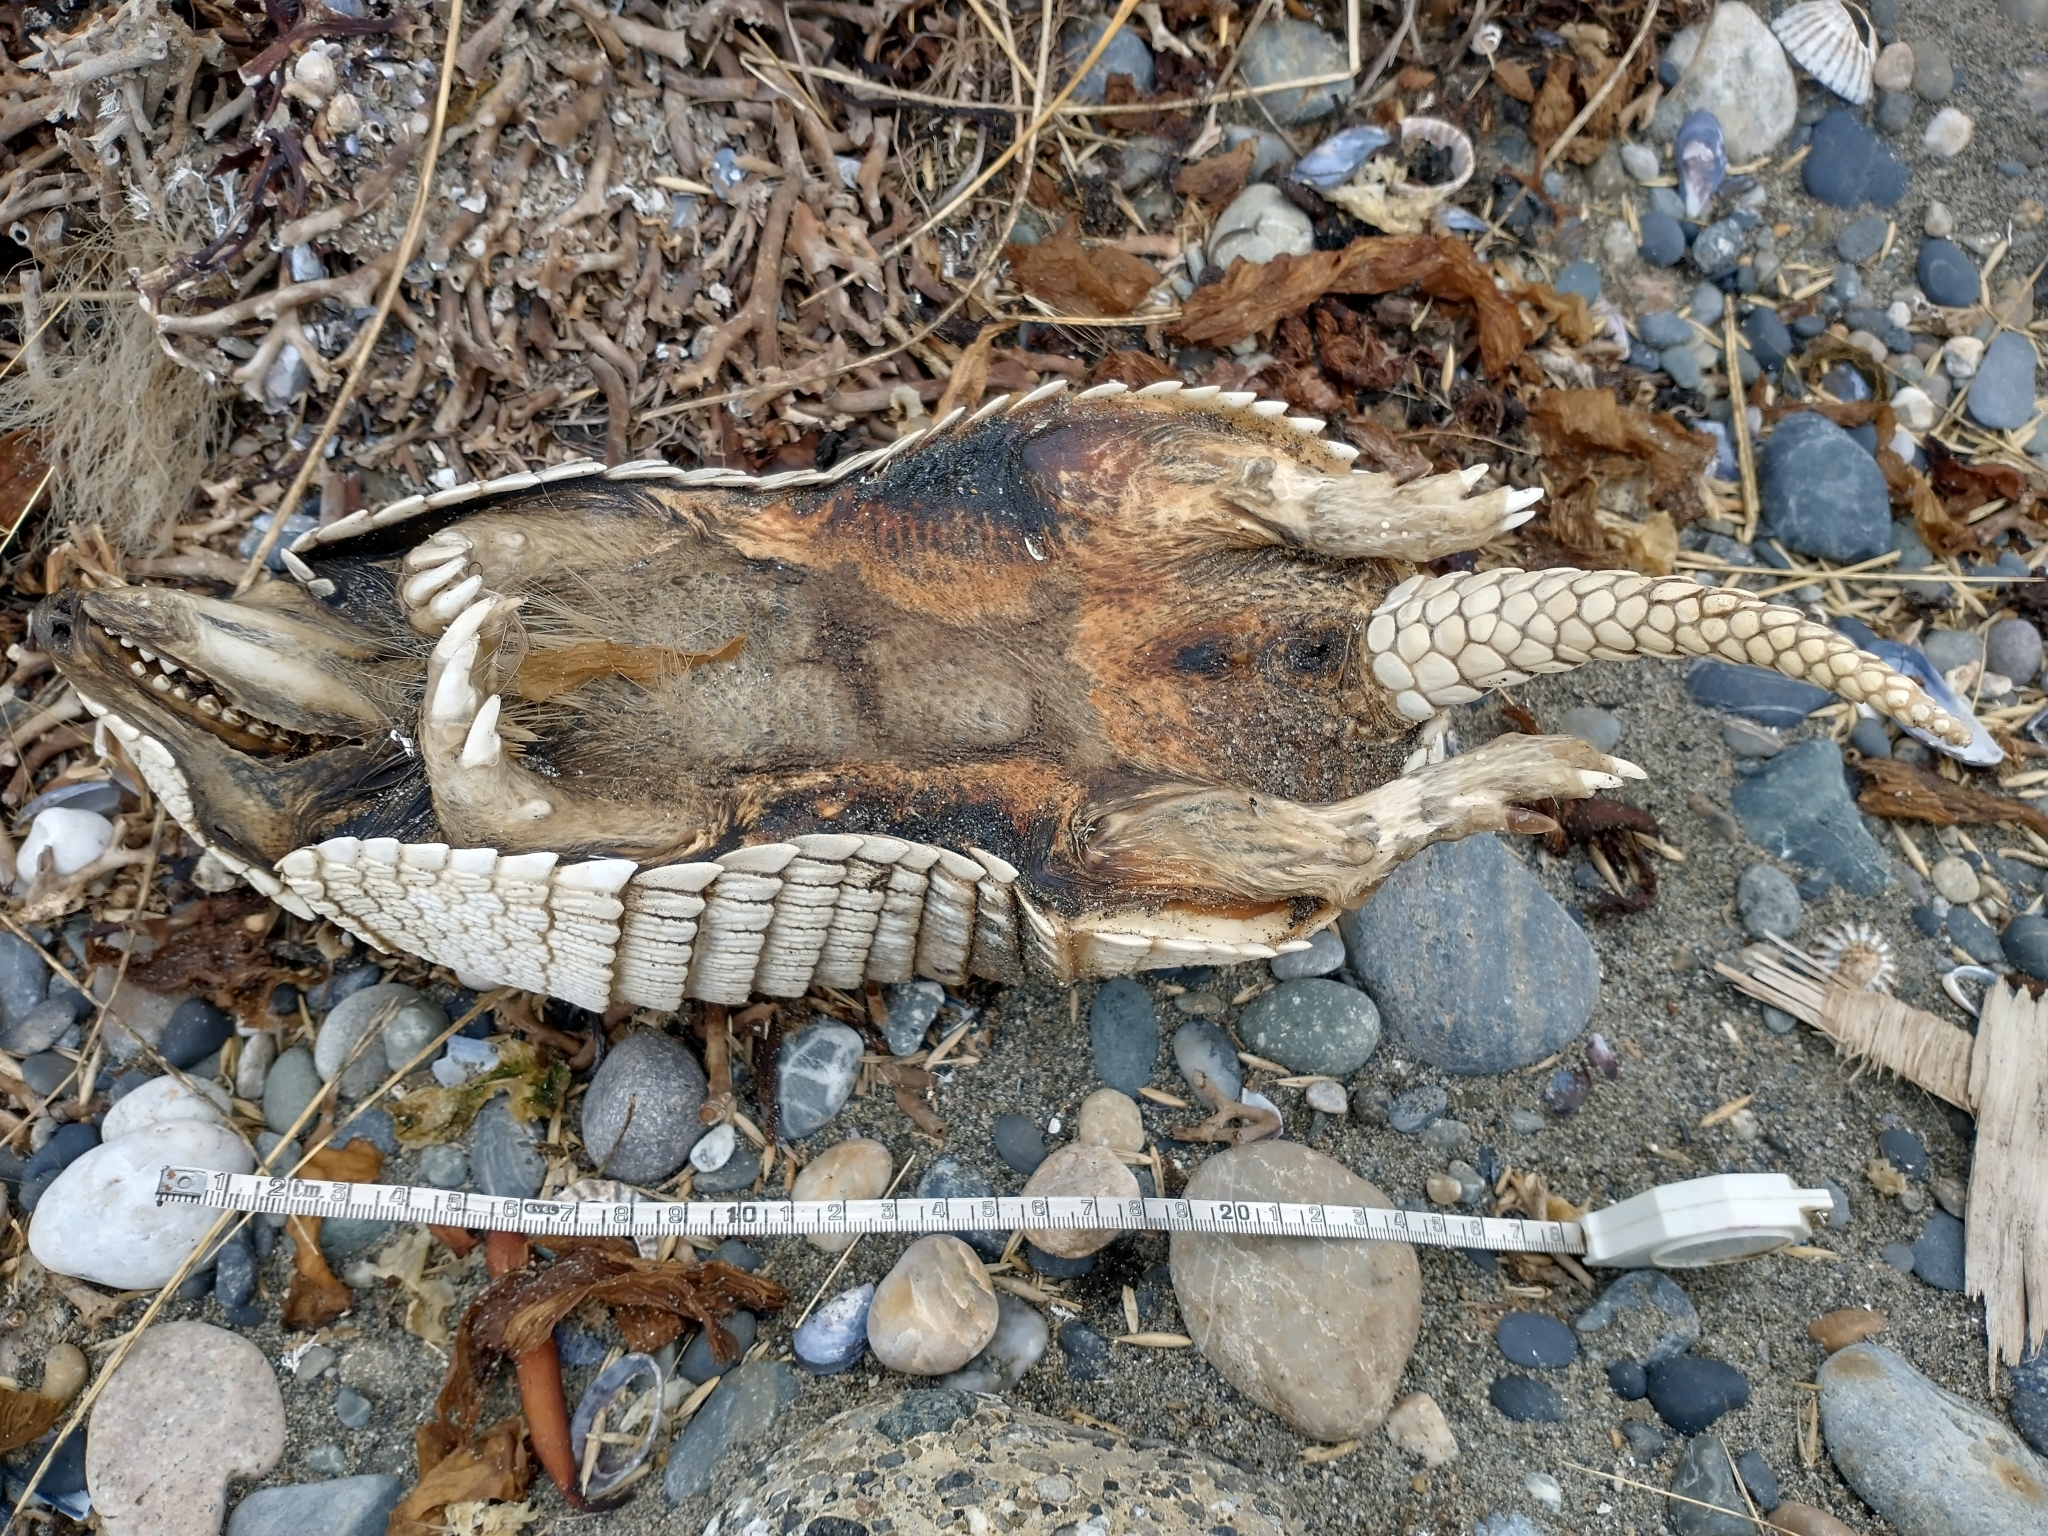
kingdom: Animalia
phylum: Chordata
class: Mammalia
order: Cingulata
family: Dasypodidae
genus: Chaetophractus
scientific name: Chaetophractus villosus
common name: Big hairy armadillo
